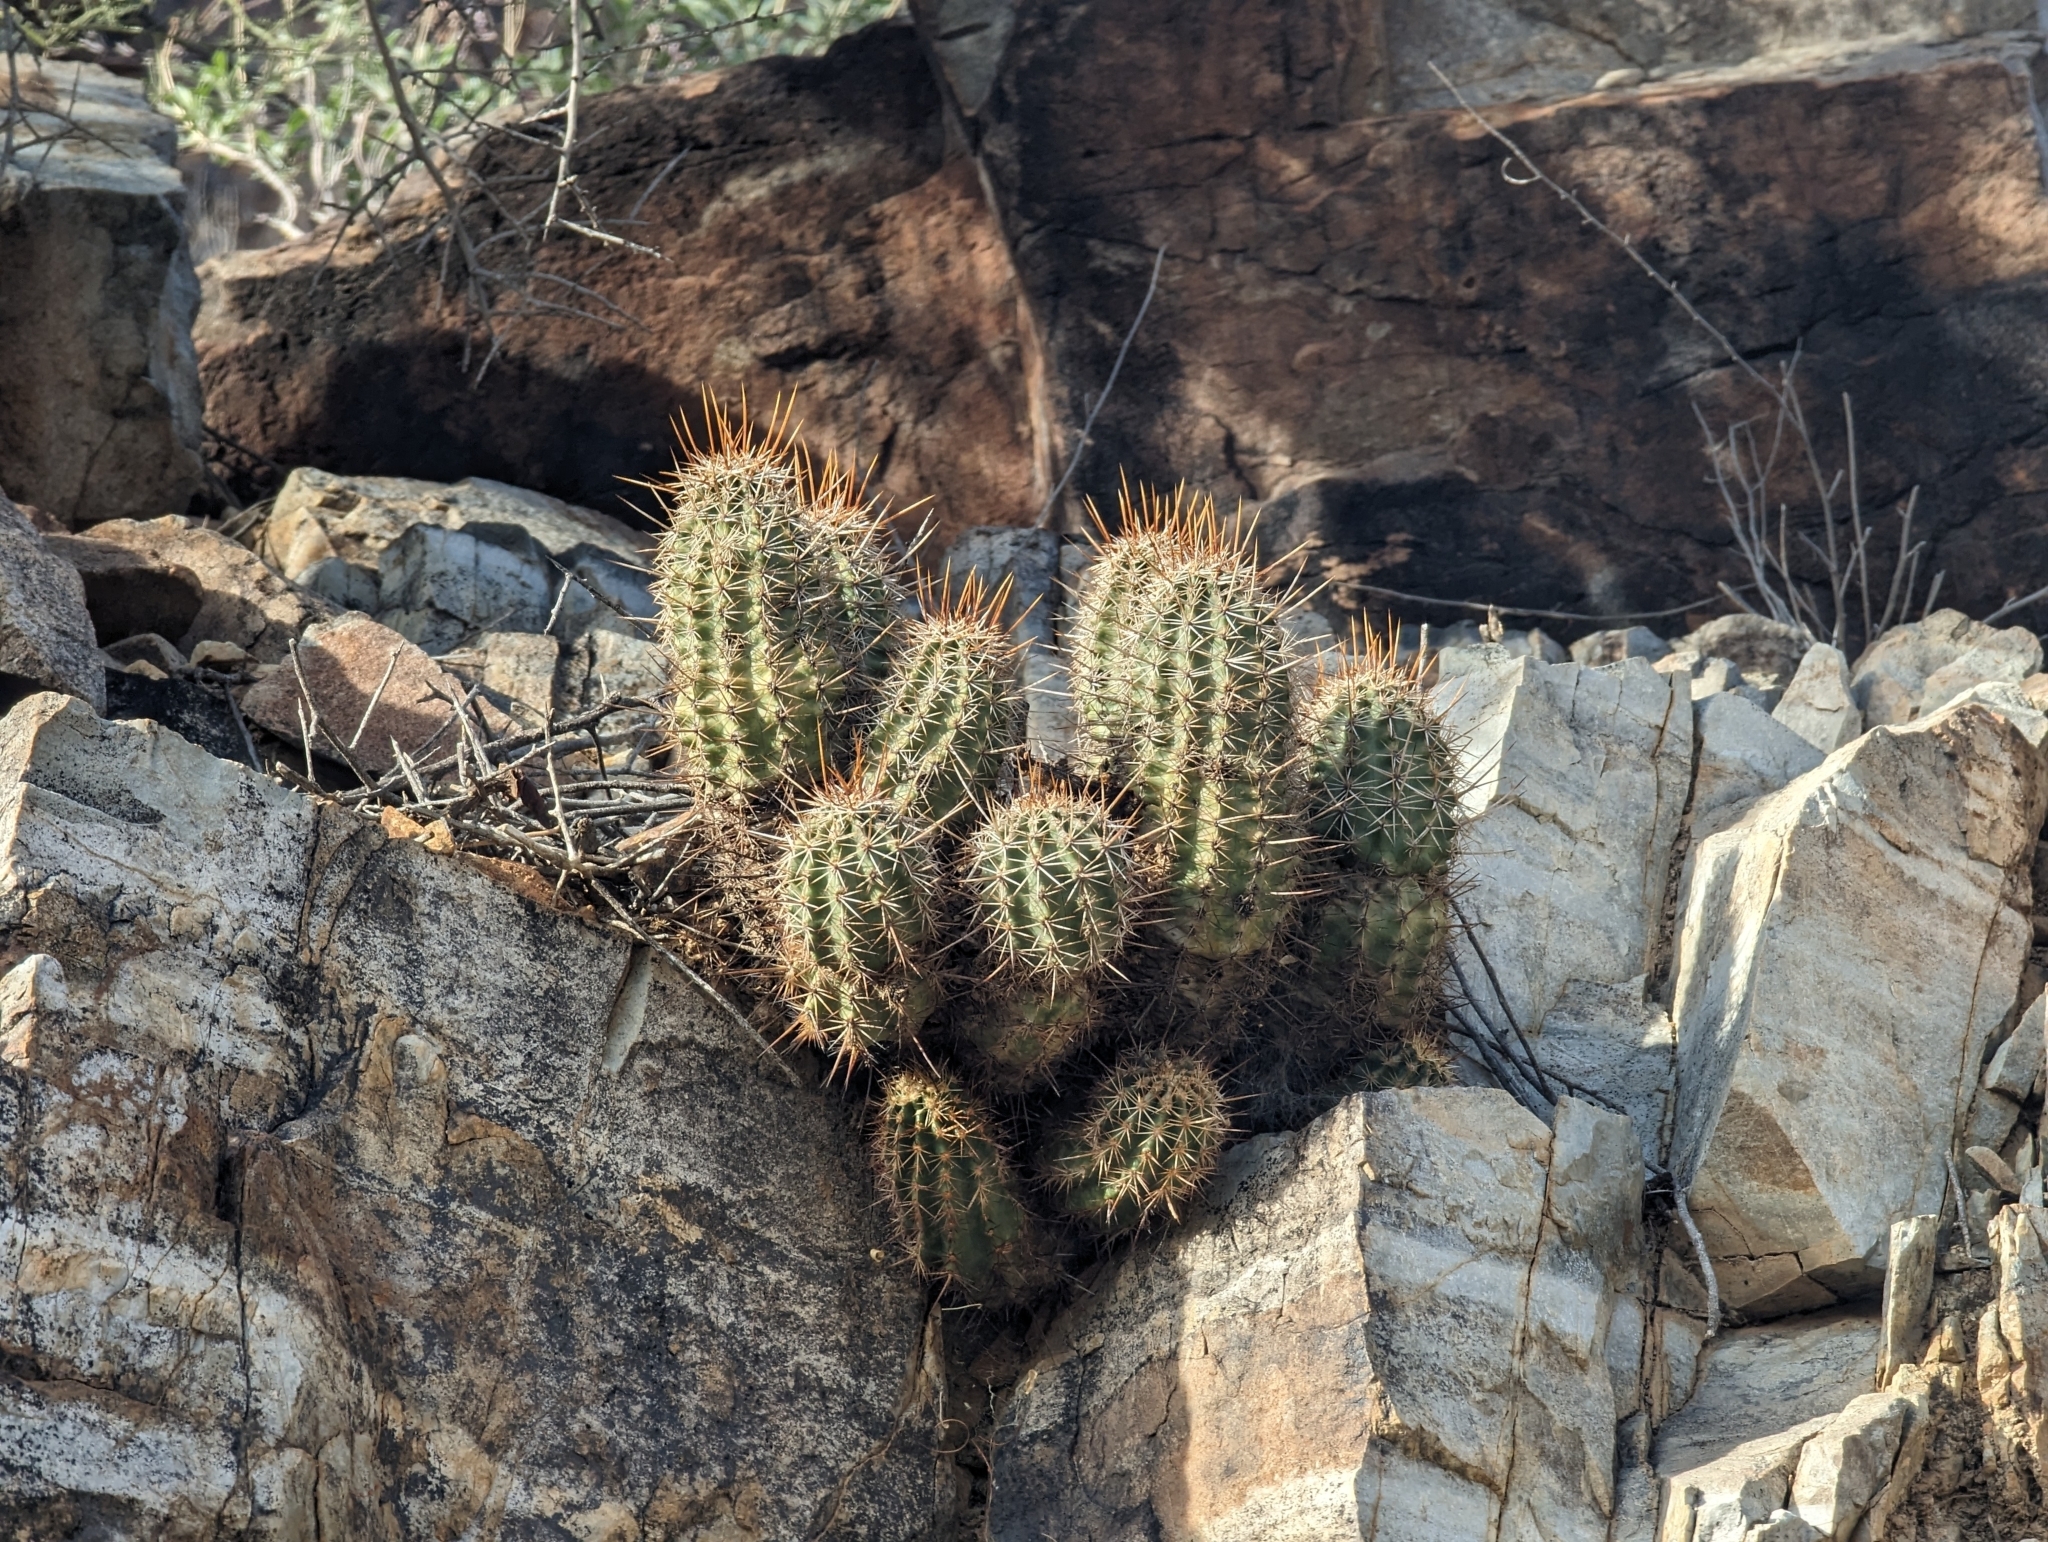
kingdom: Plantae
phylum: Tracheophyta
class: Magnoliopsida
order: Caryophyllales
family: Cactaceae
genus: Echinocereus
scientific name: Echinocereus fasciculatus
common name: Bundle hedgehog
